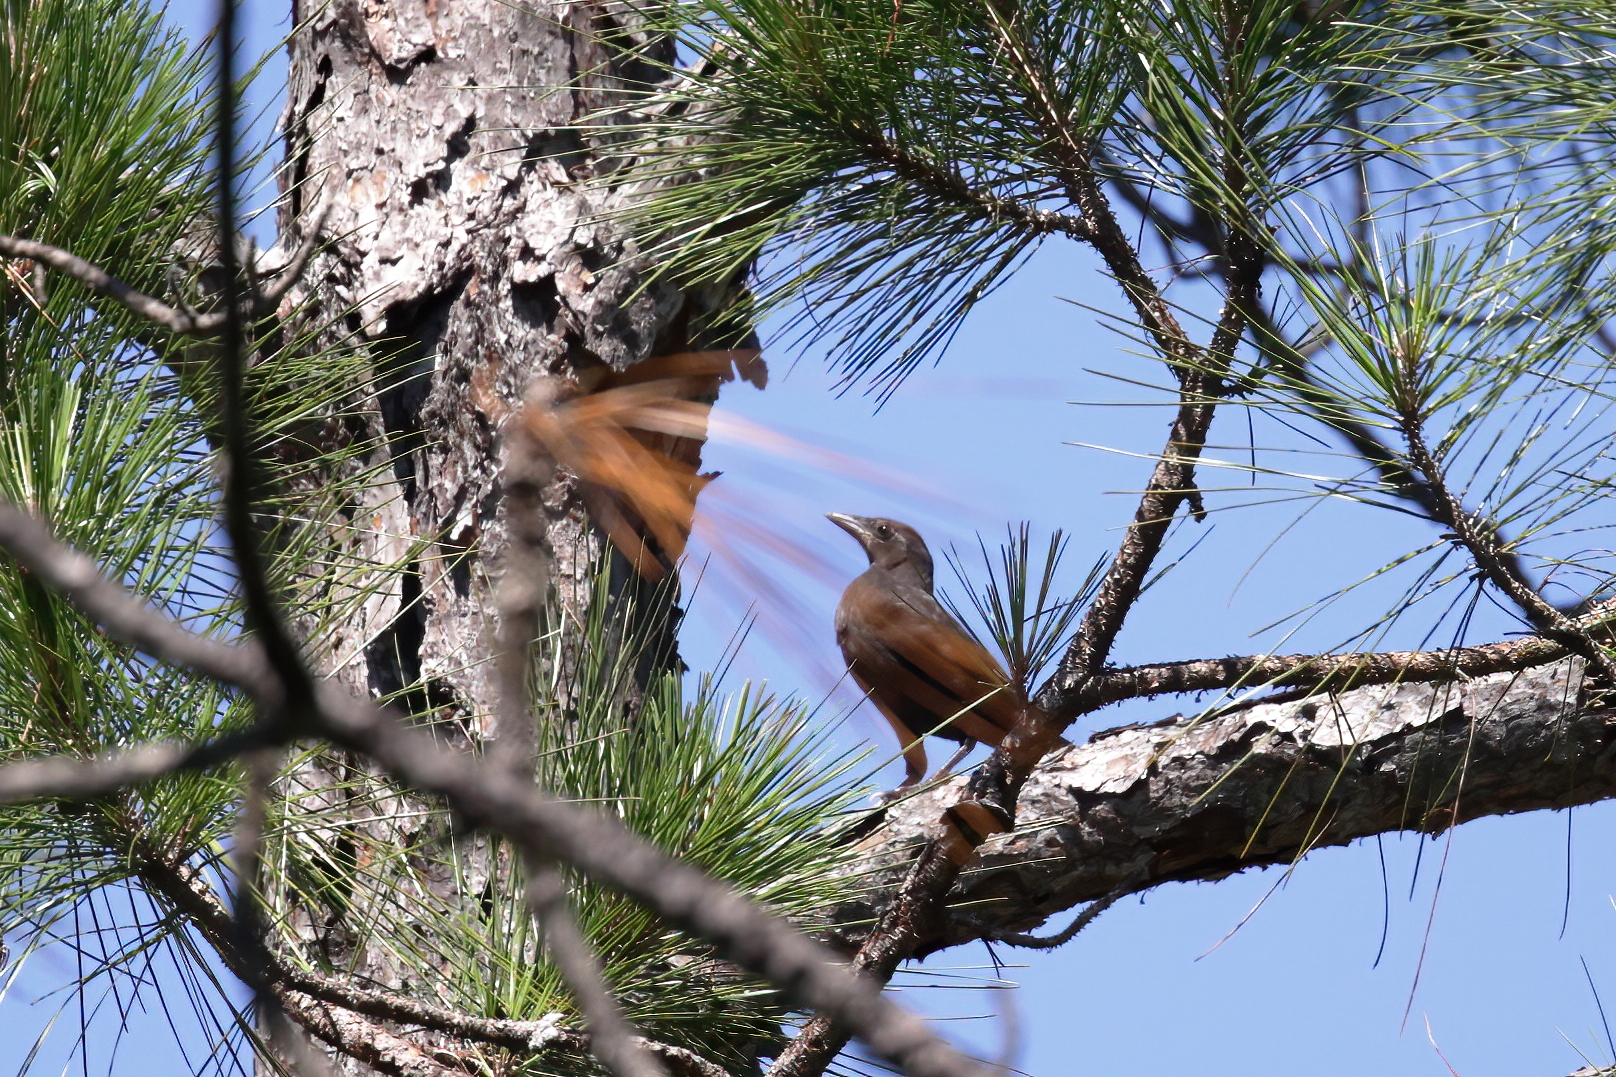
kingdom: Animalia
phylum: Chordata
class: Aves
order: Passeriformes
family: Icteridae
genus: Quiscalus
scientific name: Quiscalus quiscula
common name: Common grackle
